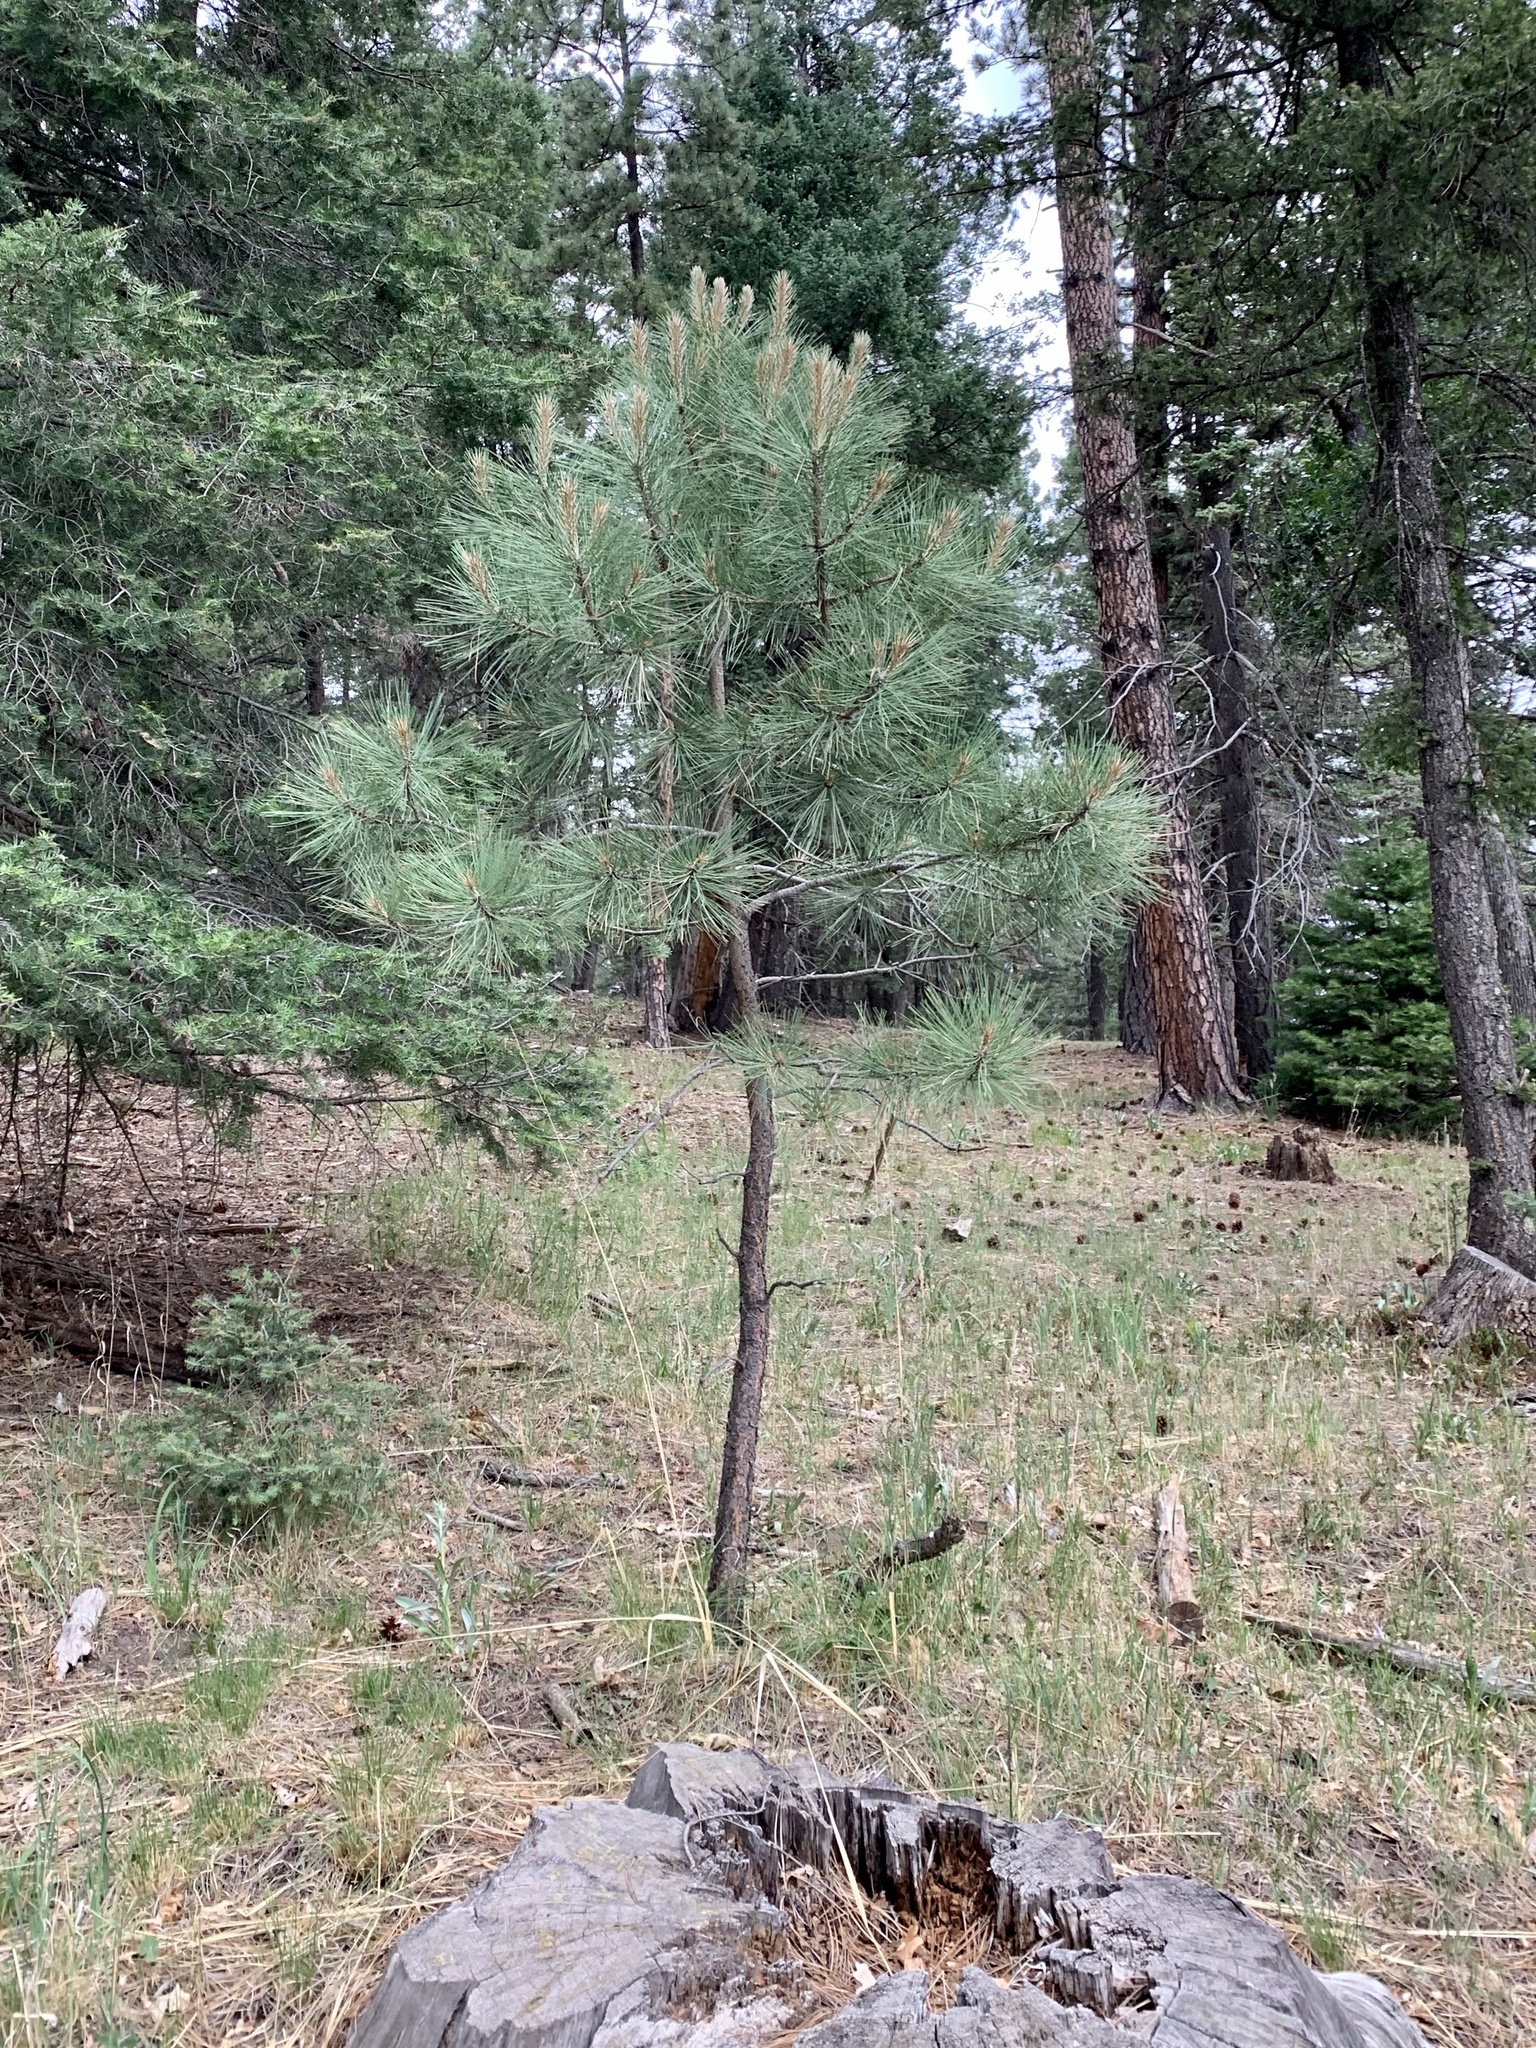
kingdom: Plantae
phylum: Tracheophyta
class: Pinopsida
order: Pinales
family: Pinaceae
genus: Pinus
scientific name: Pinus ponderosa
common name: Western yellow-pine
